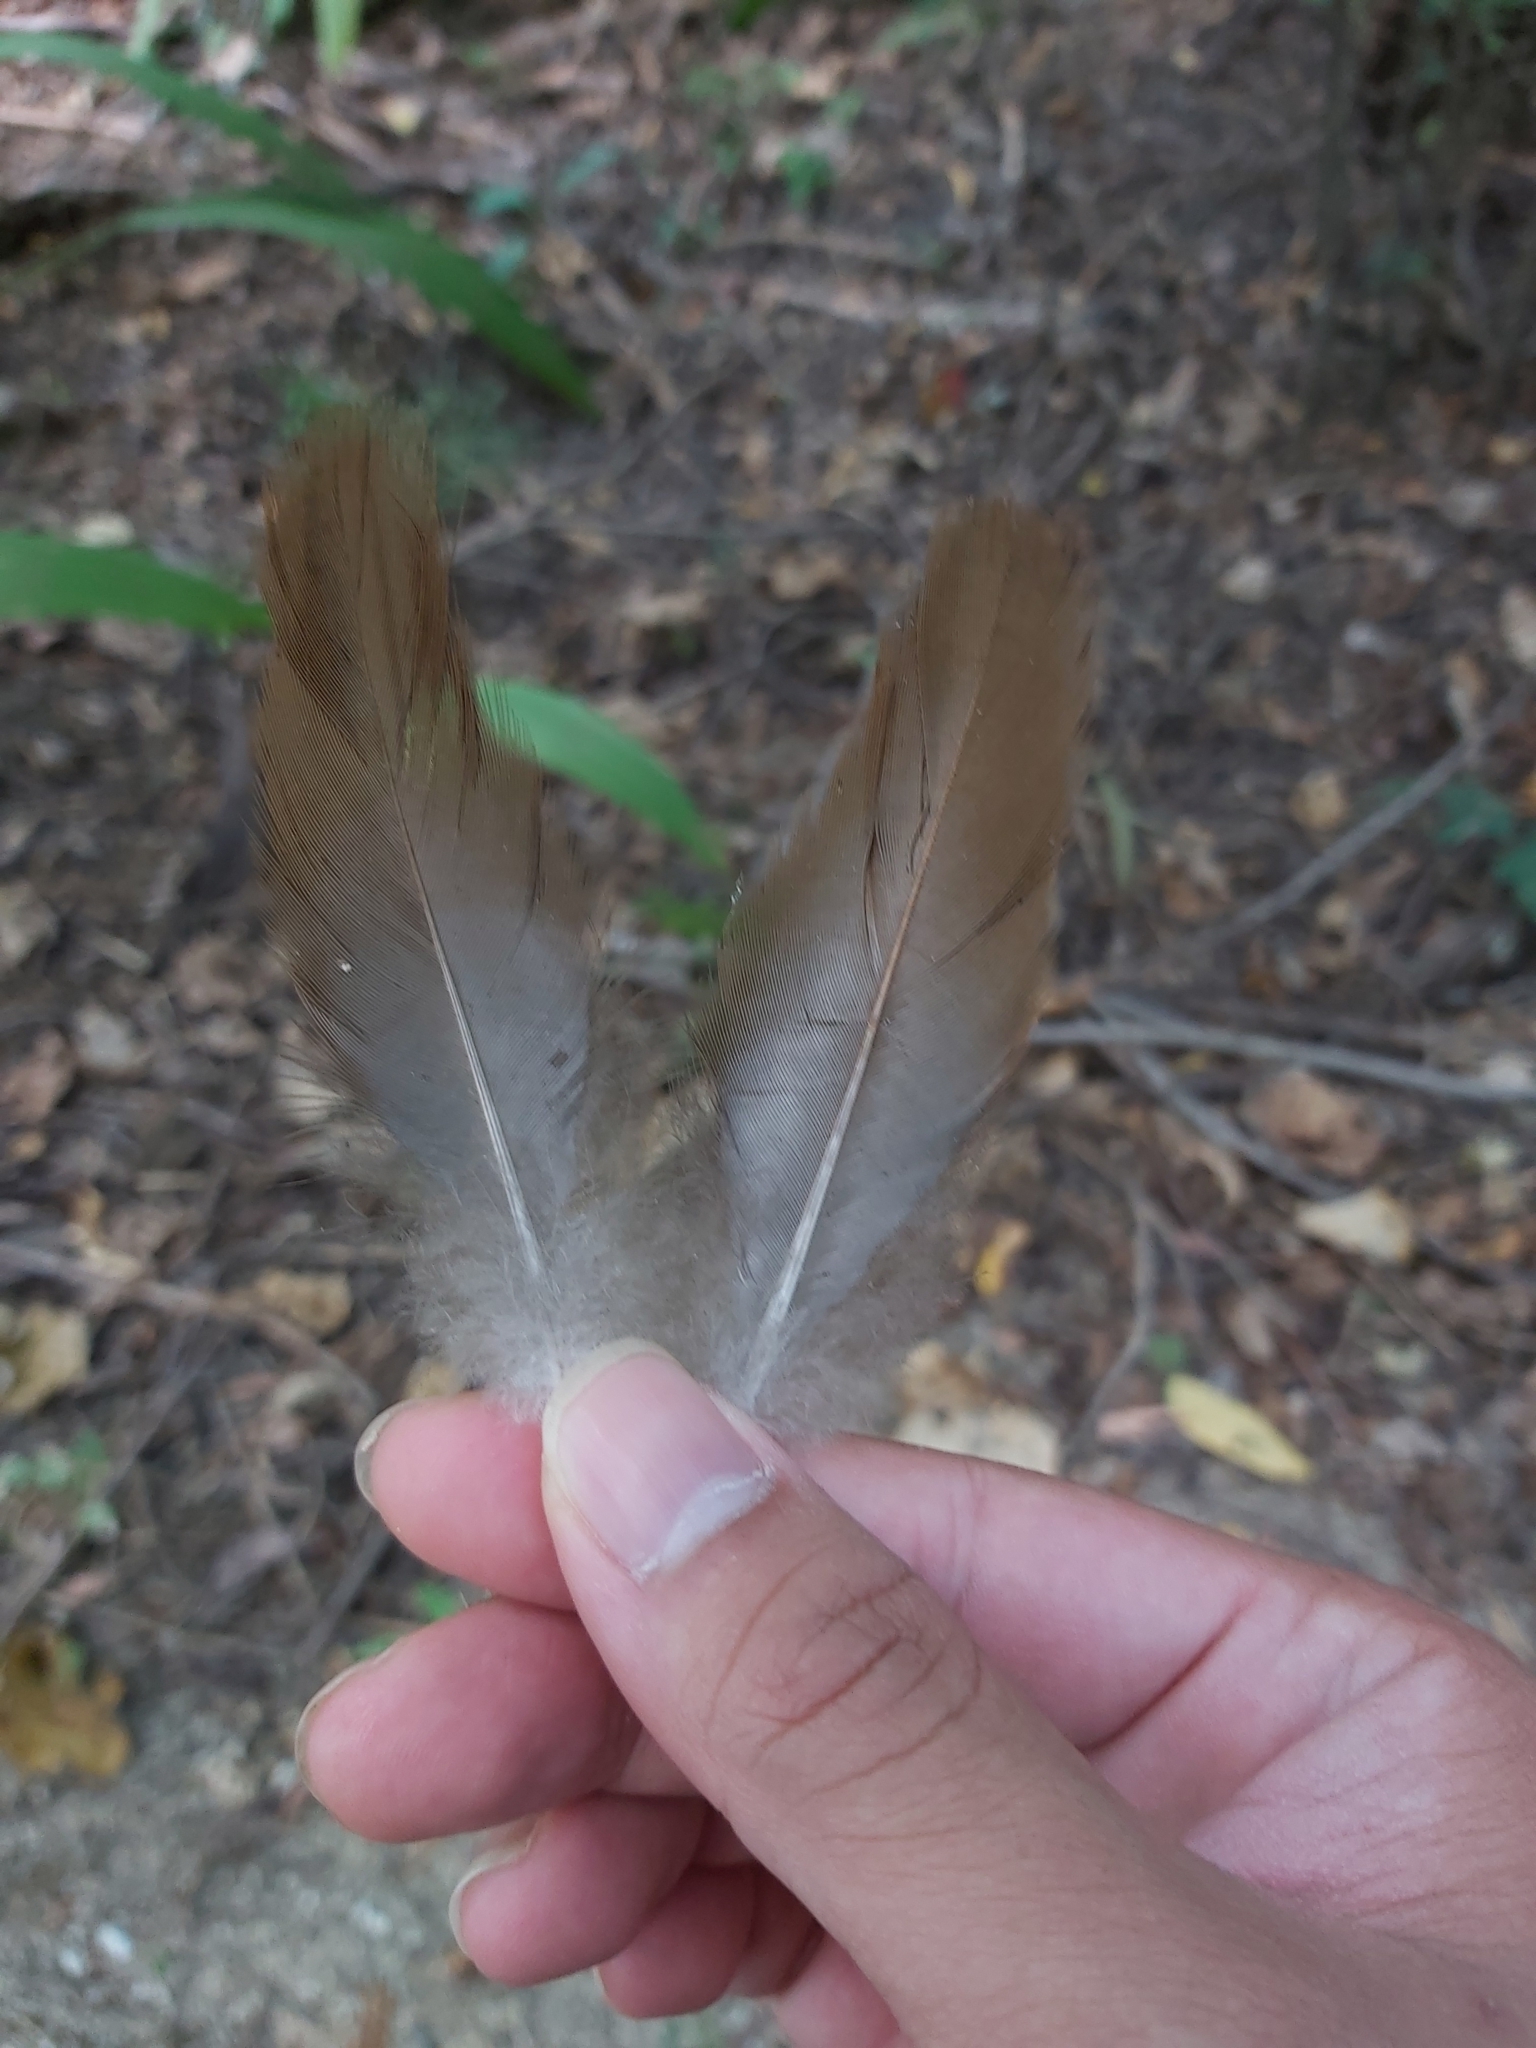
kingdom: Animalia
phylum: Chordata
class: Aves
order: Galliformes
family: Megapodiidae
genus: Megapodius
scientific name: Megapodius reinwardt
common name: Orange-footed scrubfowl
